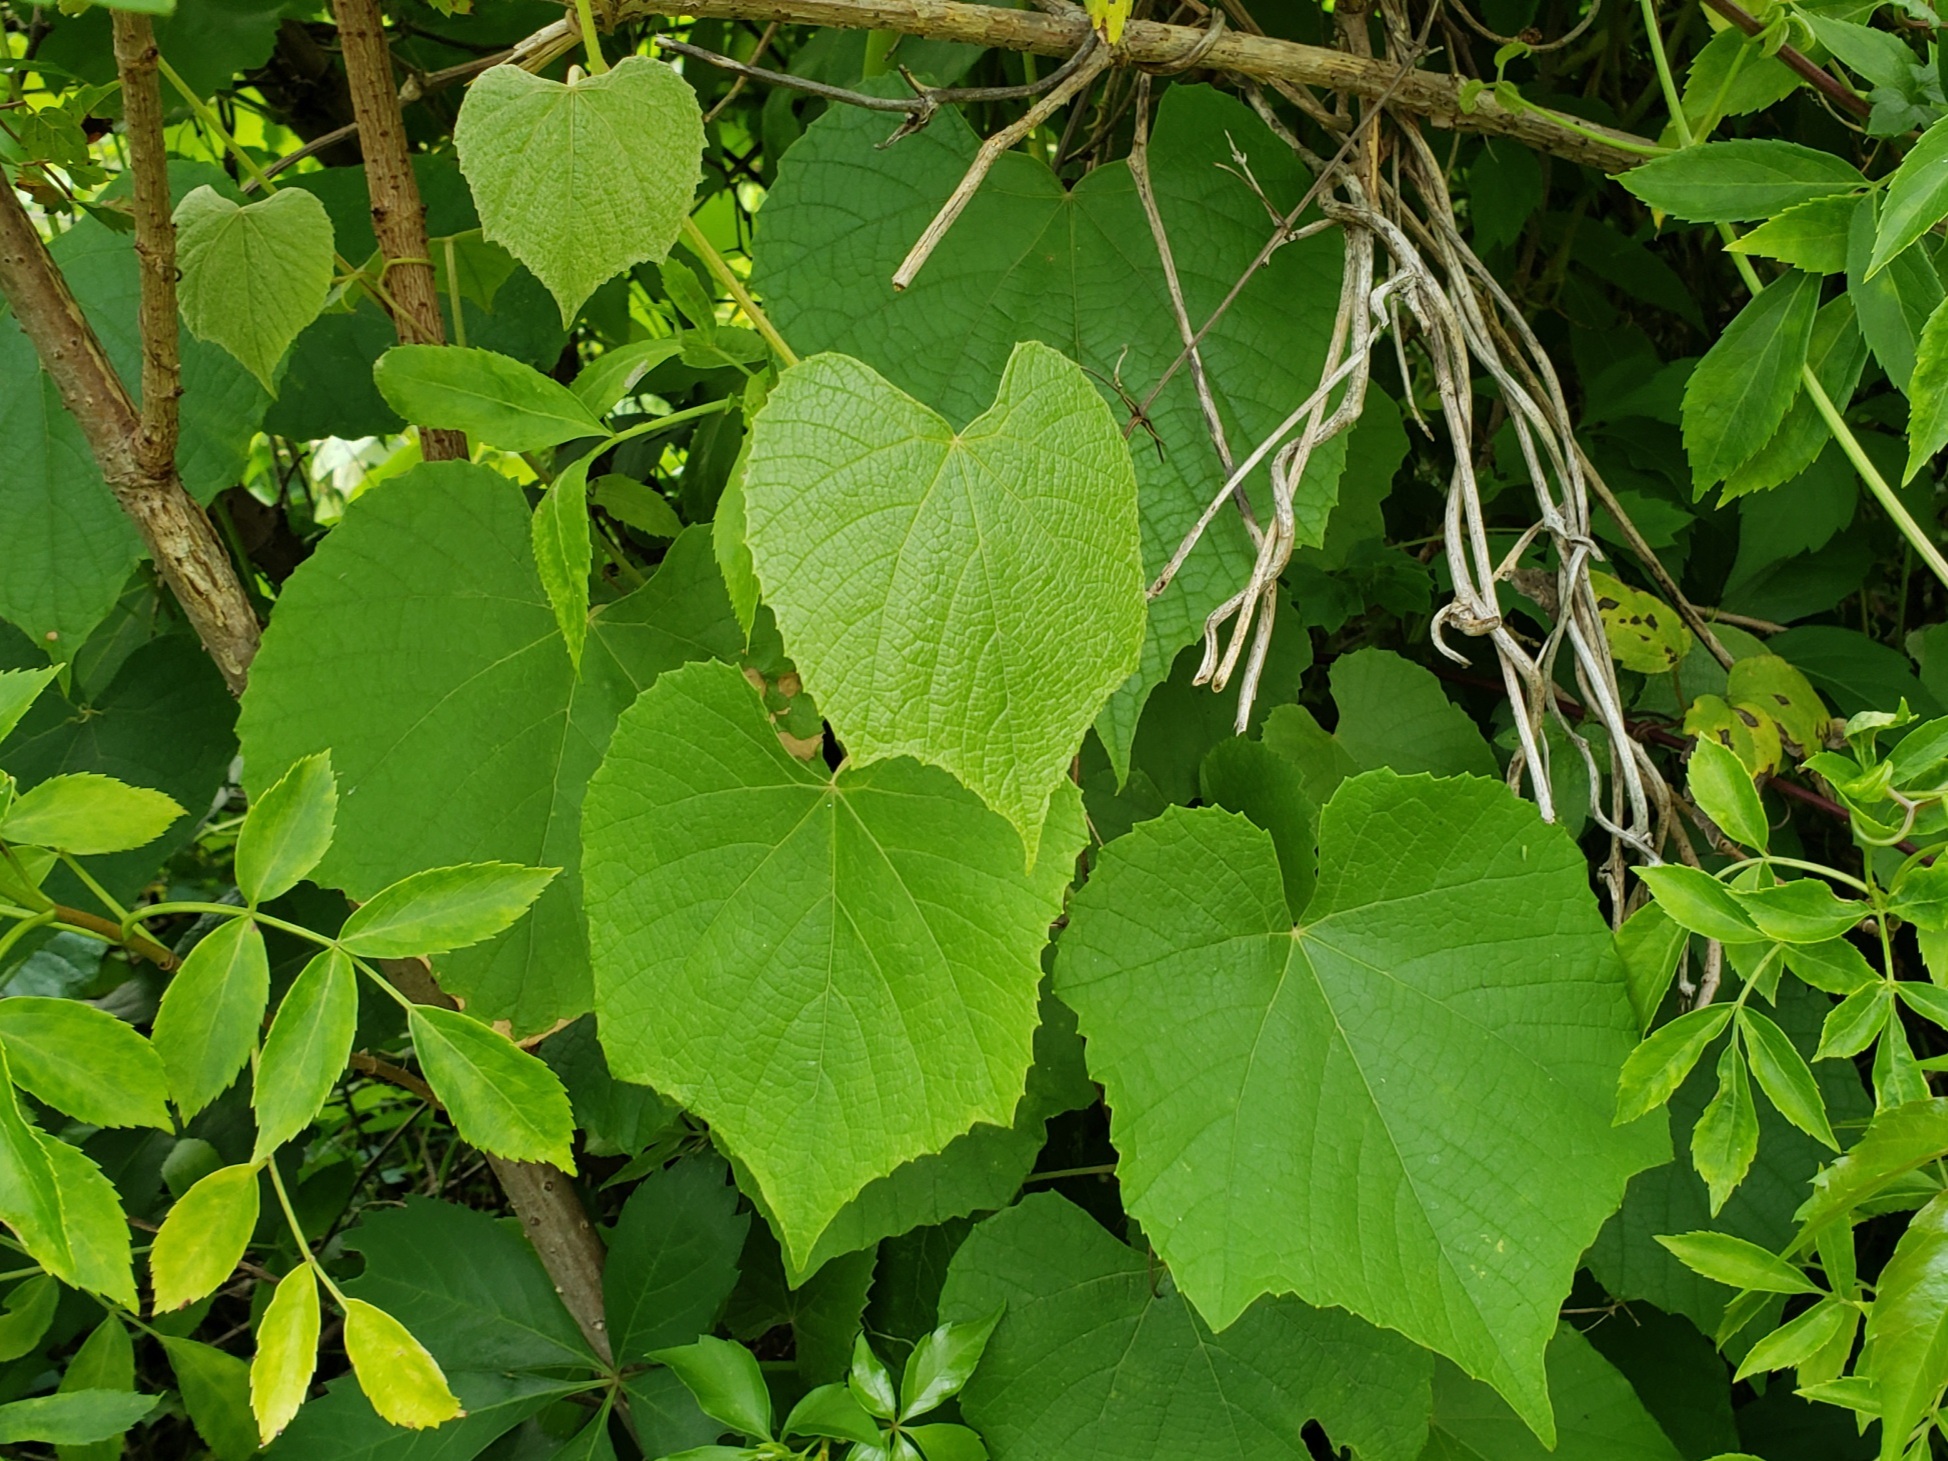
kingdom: Plantae
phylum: Tracheophyta
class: Magnoliopsida
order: Vitales
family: Vitaceae
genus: Vitis
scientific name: Vitis cinerea
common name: Ashy grape
